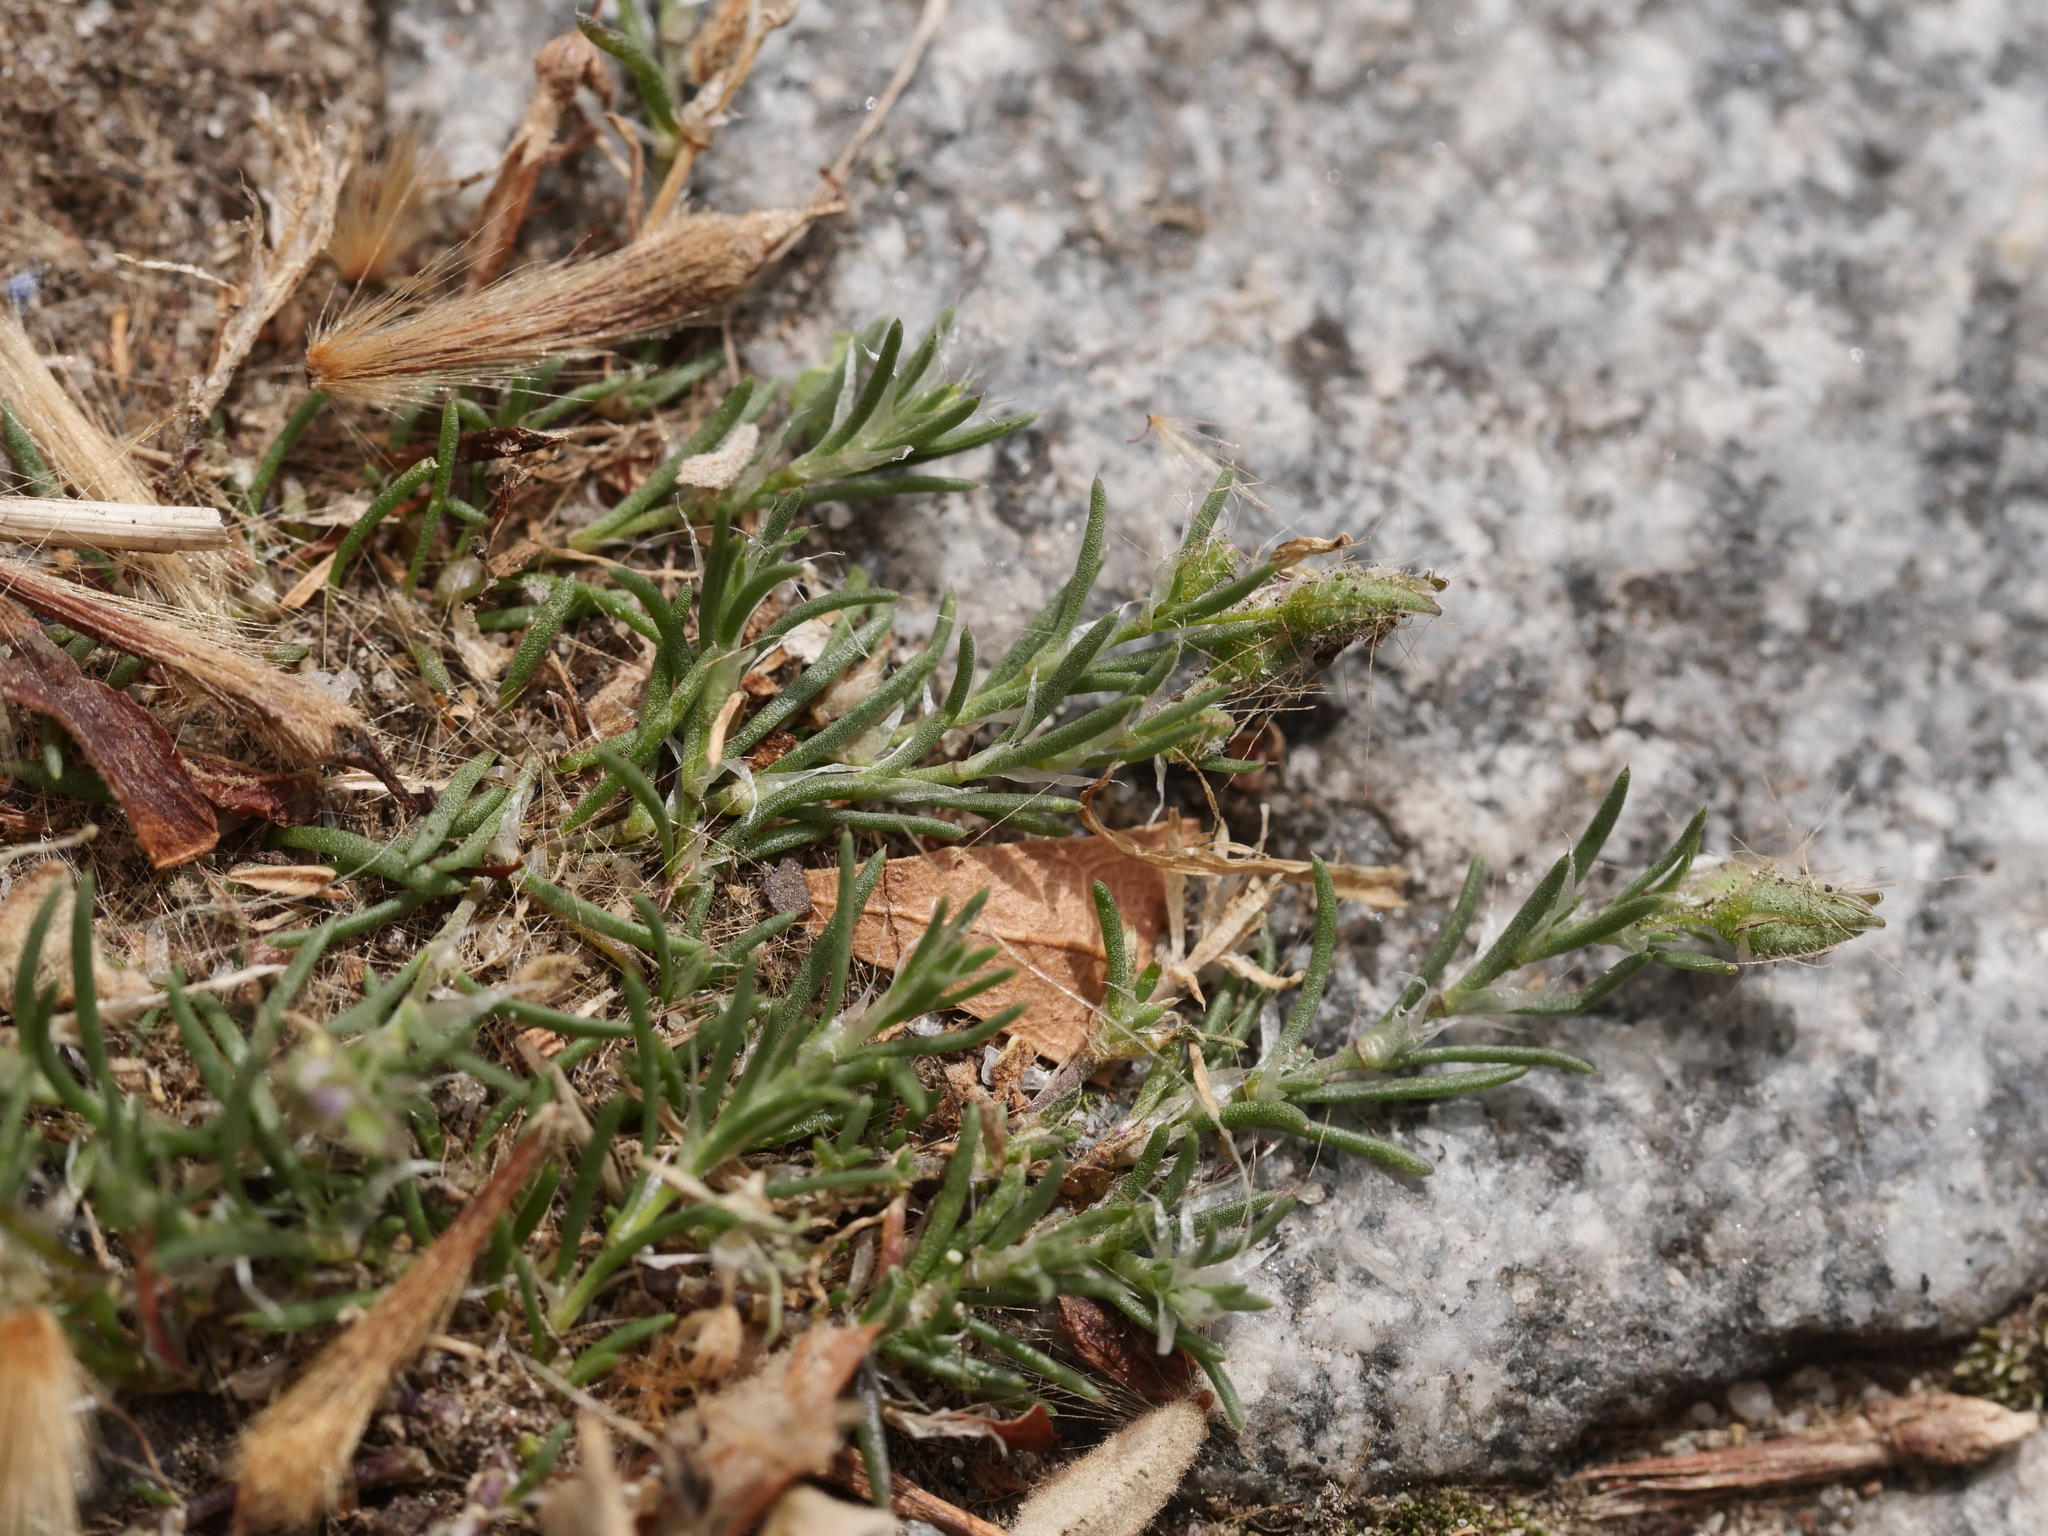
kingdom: Plantae
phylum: Tracheophyta
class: Magnoliopsida
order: Caryophyllales
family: Caryophyllaceae
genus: Spergularia
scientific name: Spergularia rubra
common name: Red sand-spurrey
